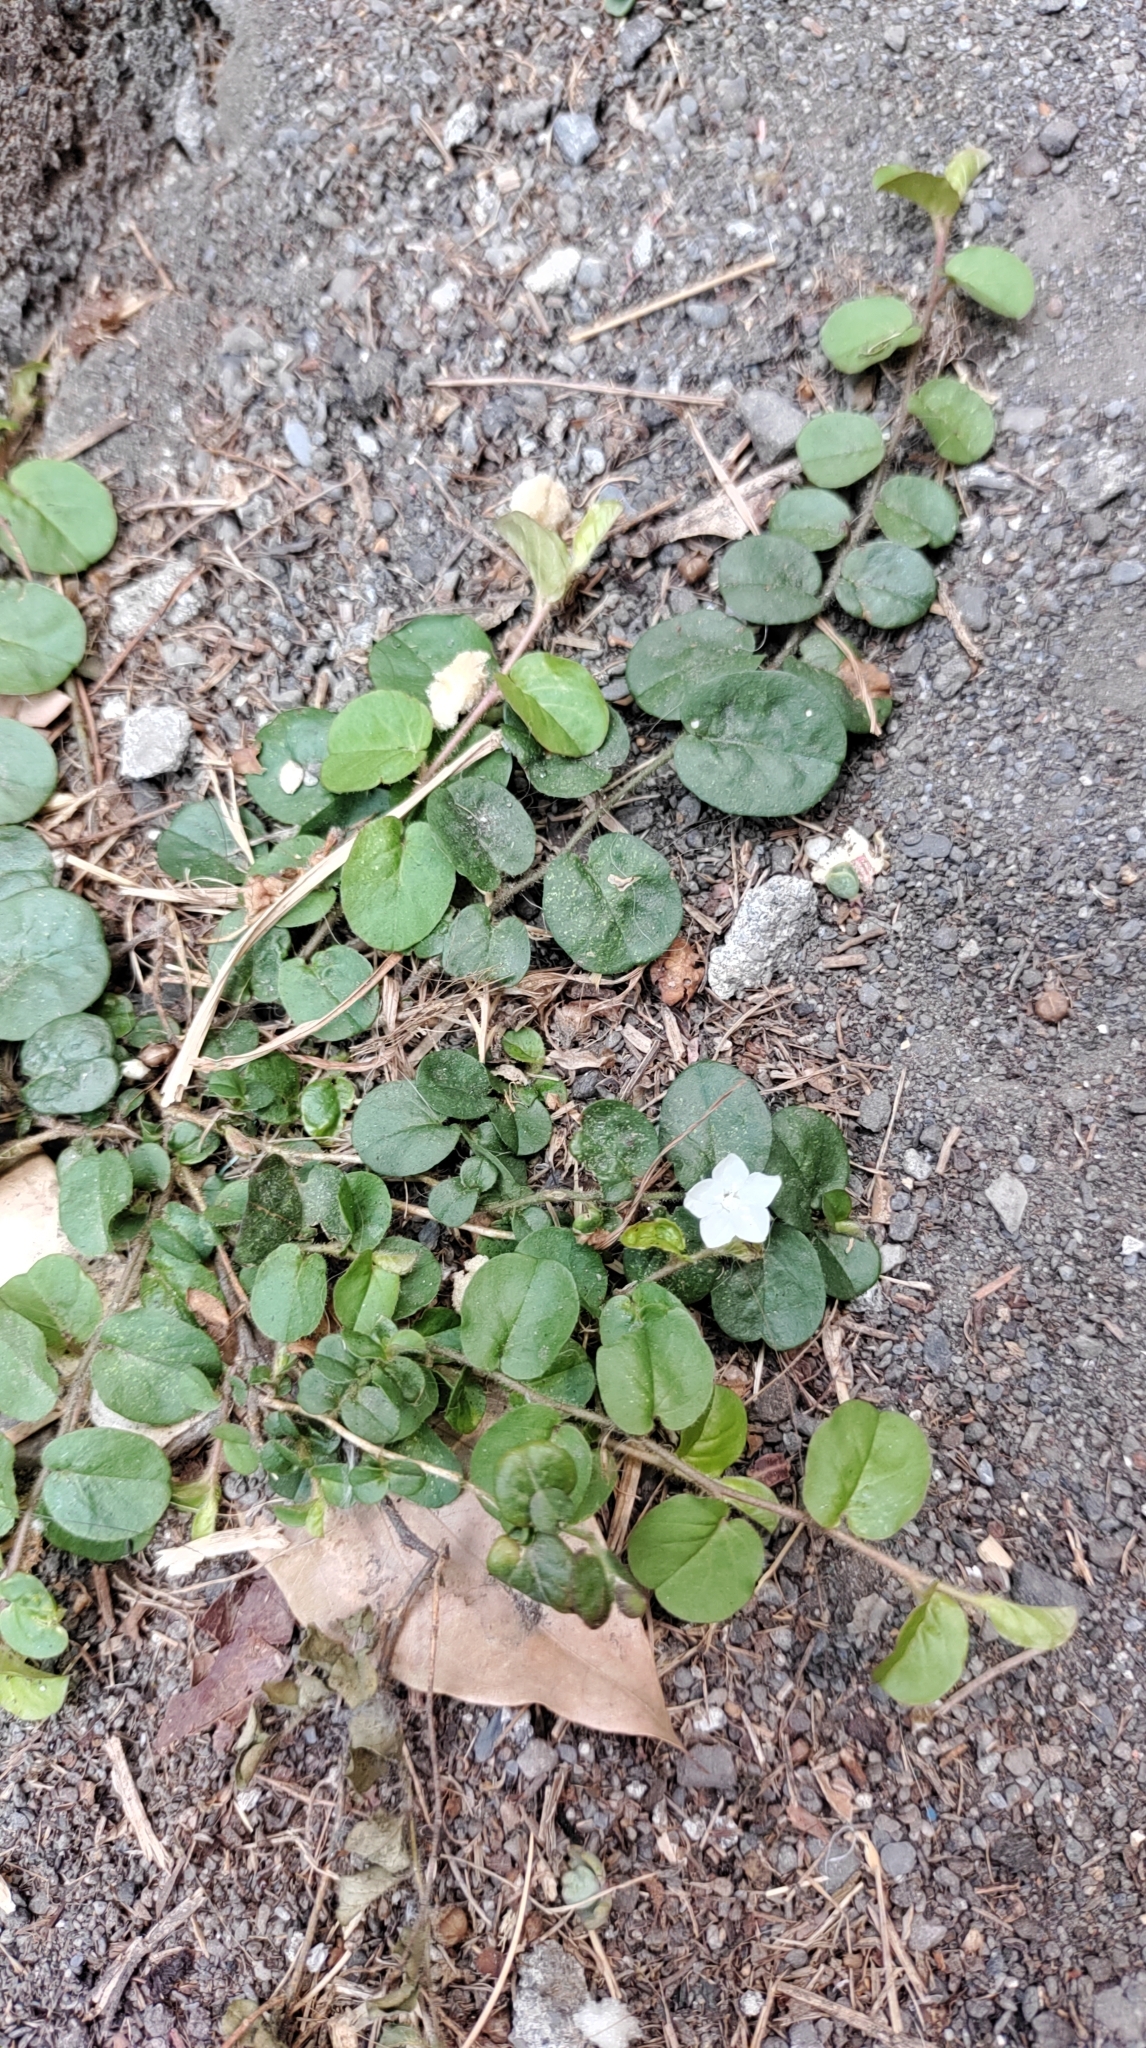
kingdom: Plantae
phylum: Tracheophyta
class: Magnoliopsida
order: Solanales
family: Convolvulaceae
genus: Evolvulus
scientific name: Evolvulus nummularius
